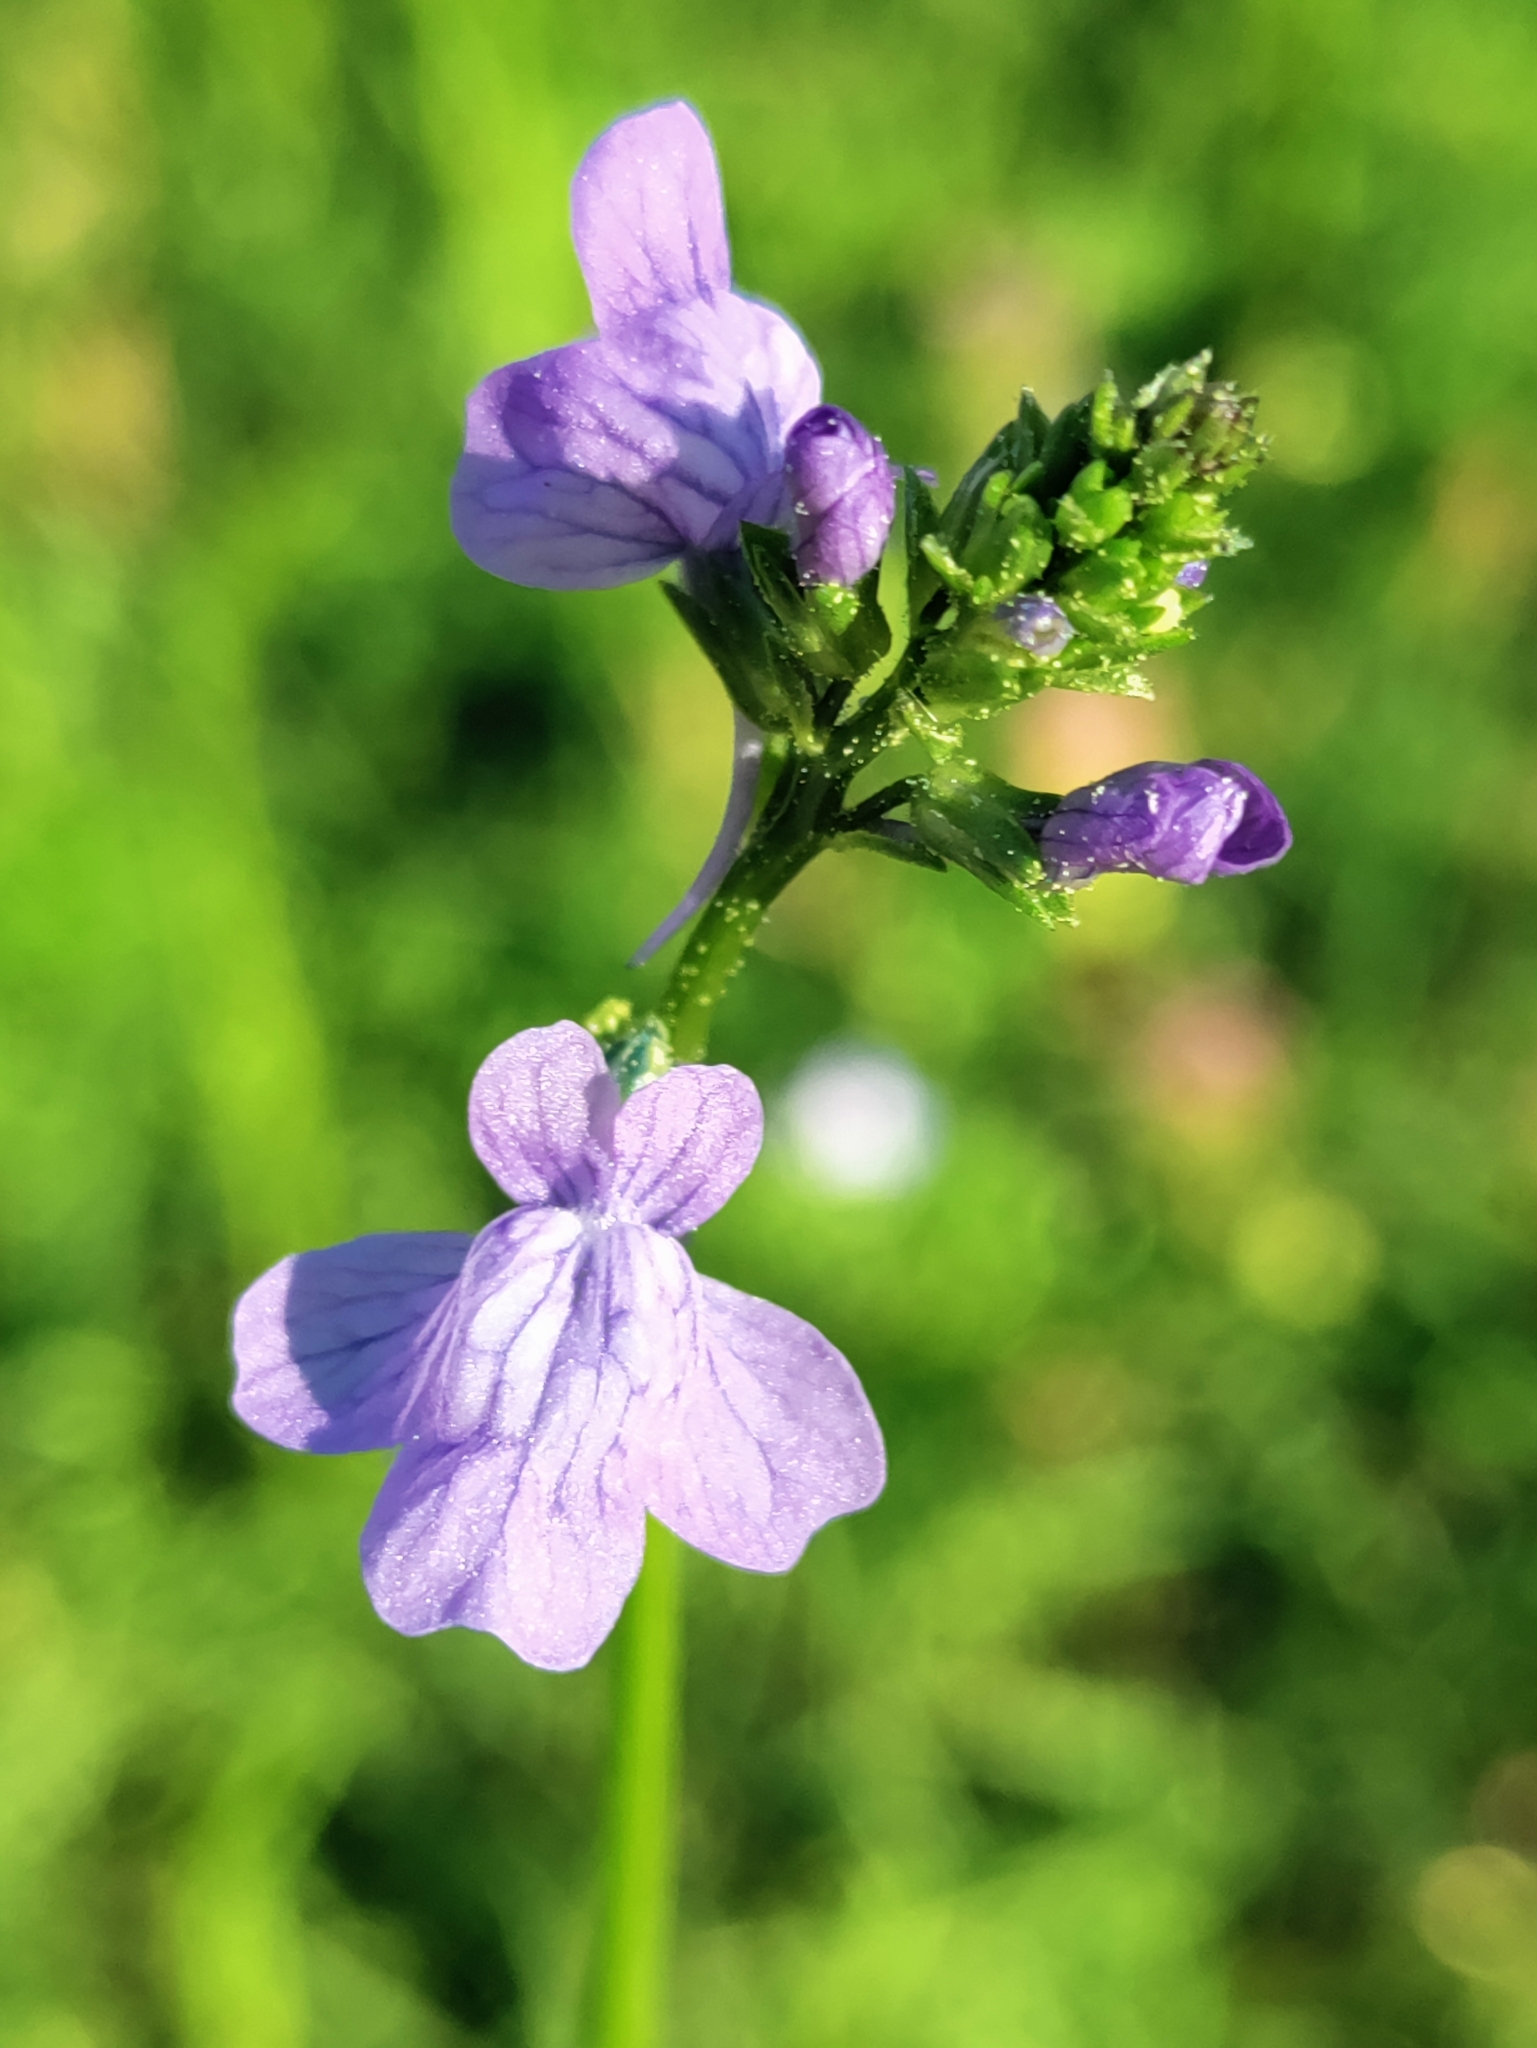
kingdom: Plantae
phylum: Tracheophyta
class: Magnoliopsida
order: Lamiales
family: Plantaginaceae
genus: Nuttallanthus
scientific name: Nuttallanthus texanus
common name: Texas toadflax
